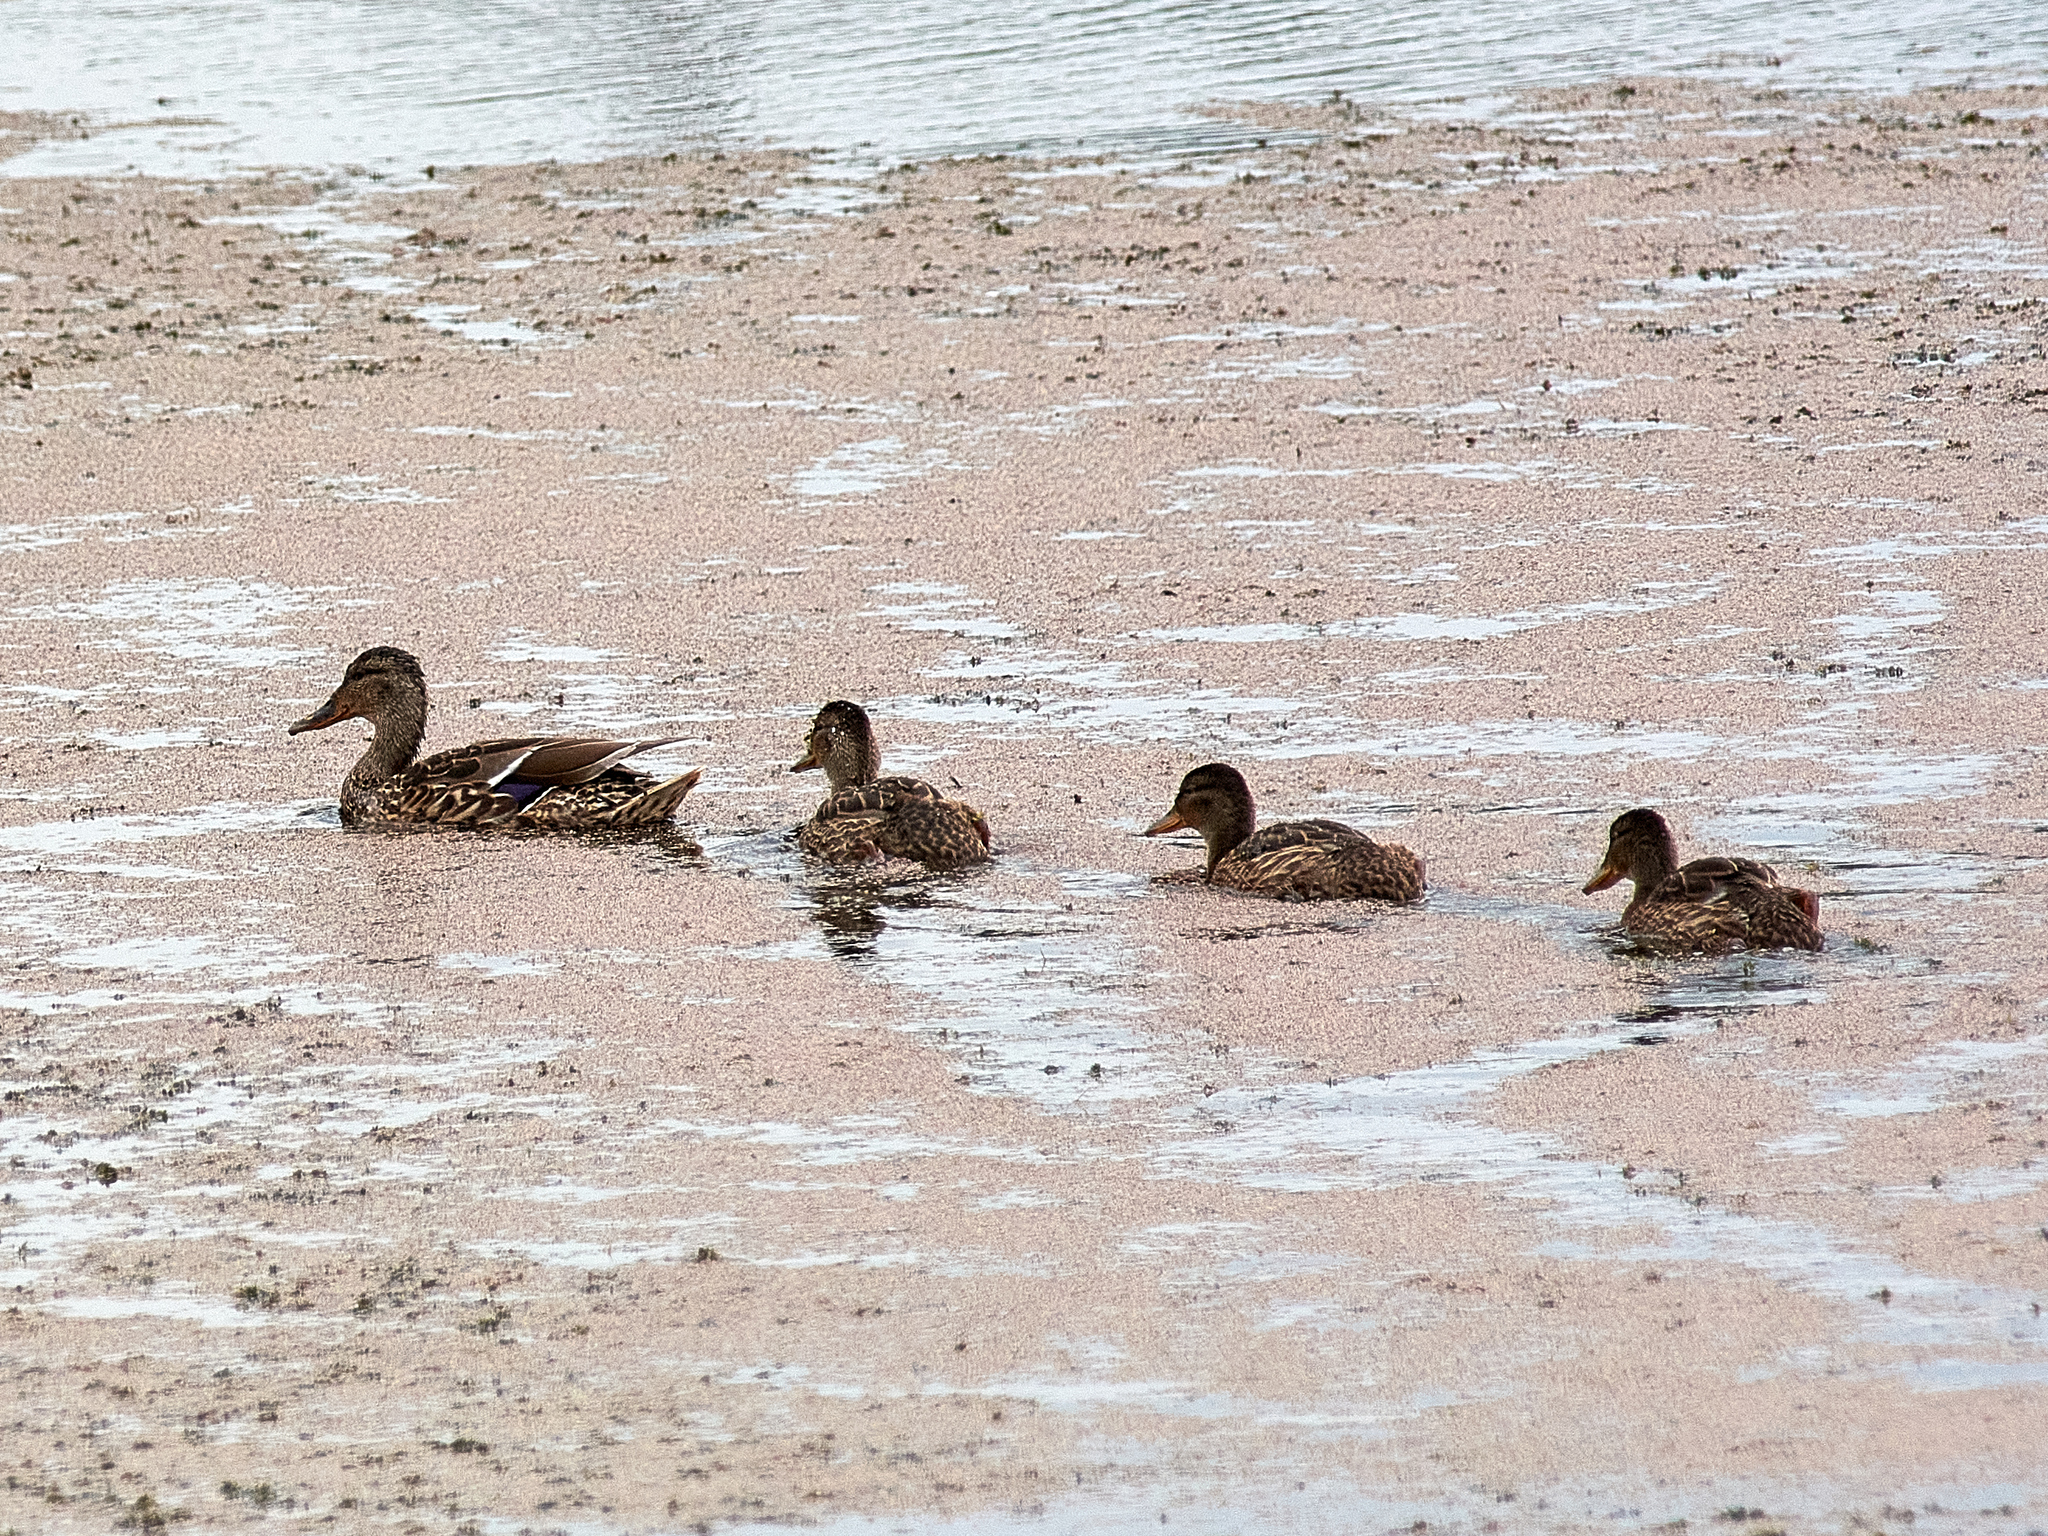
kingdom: Animalia
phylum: Chordata
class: Aves
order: Anseriformes
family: Anatidae
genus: Anas
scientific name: Anas platyrhynchos
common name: Mallard
